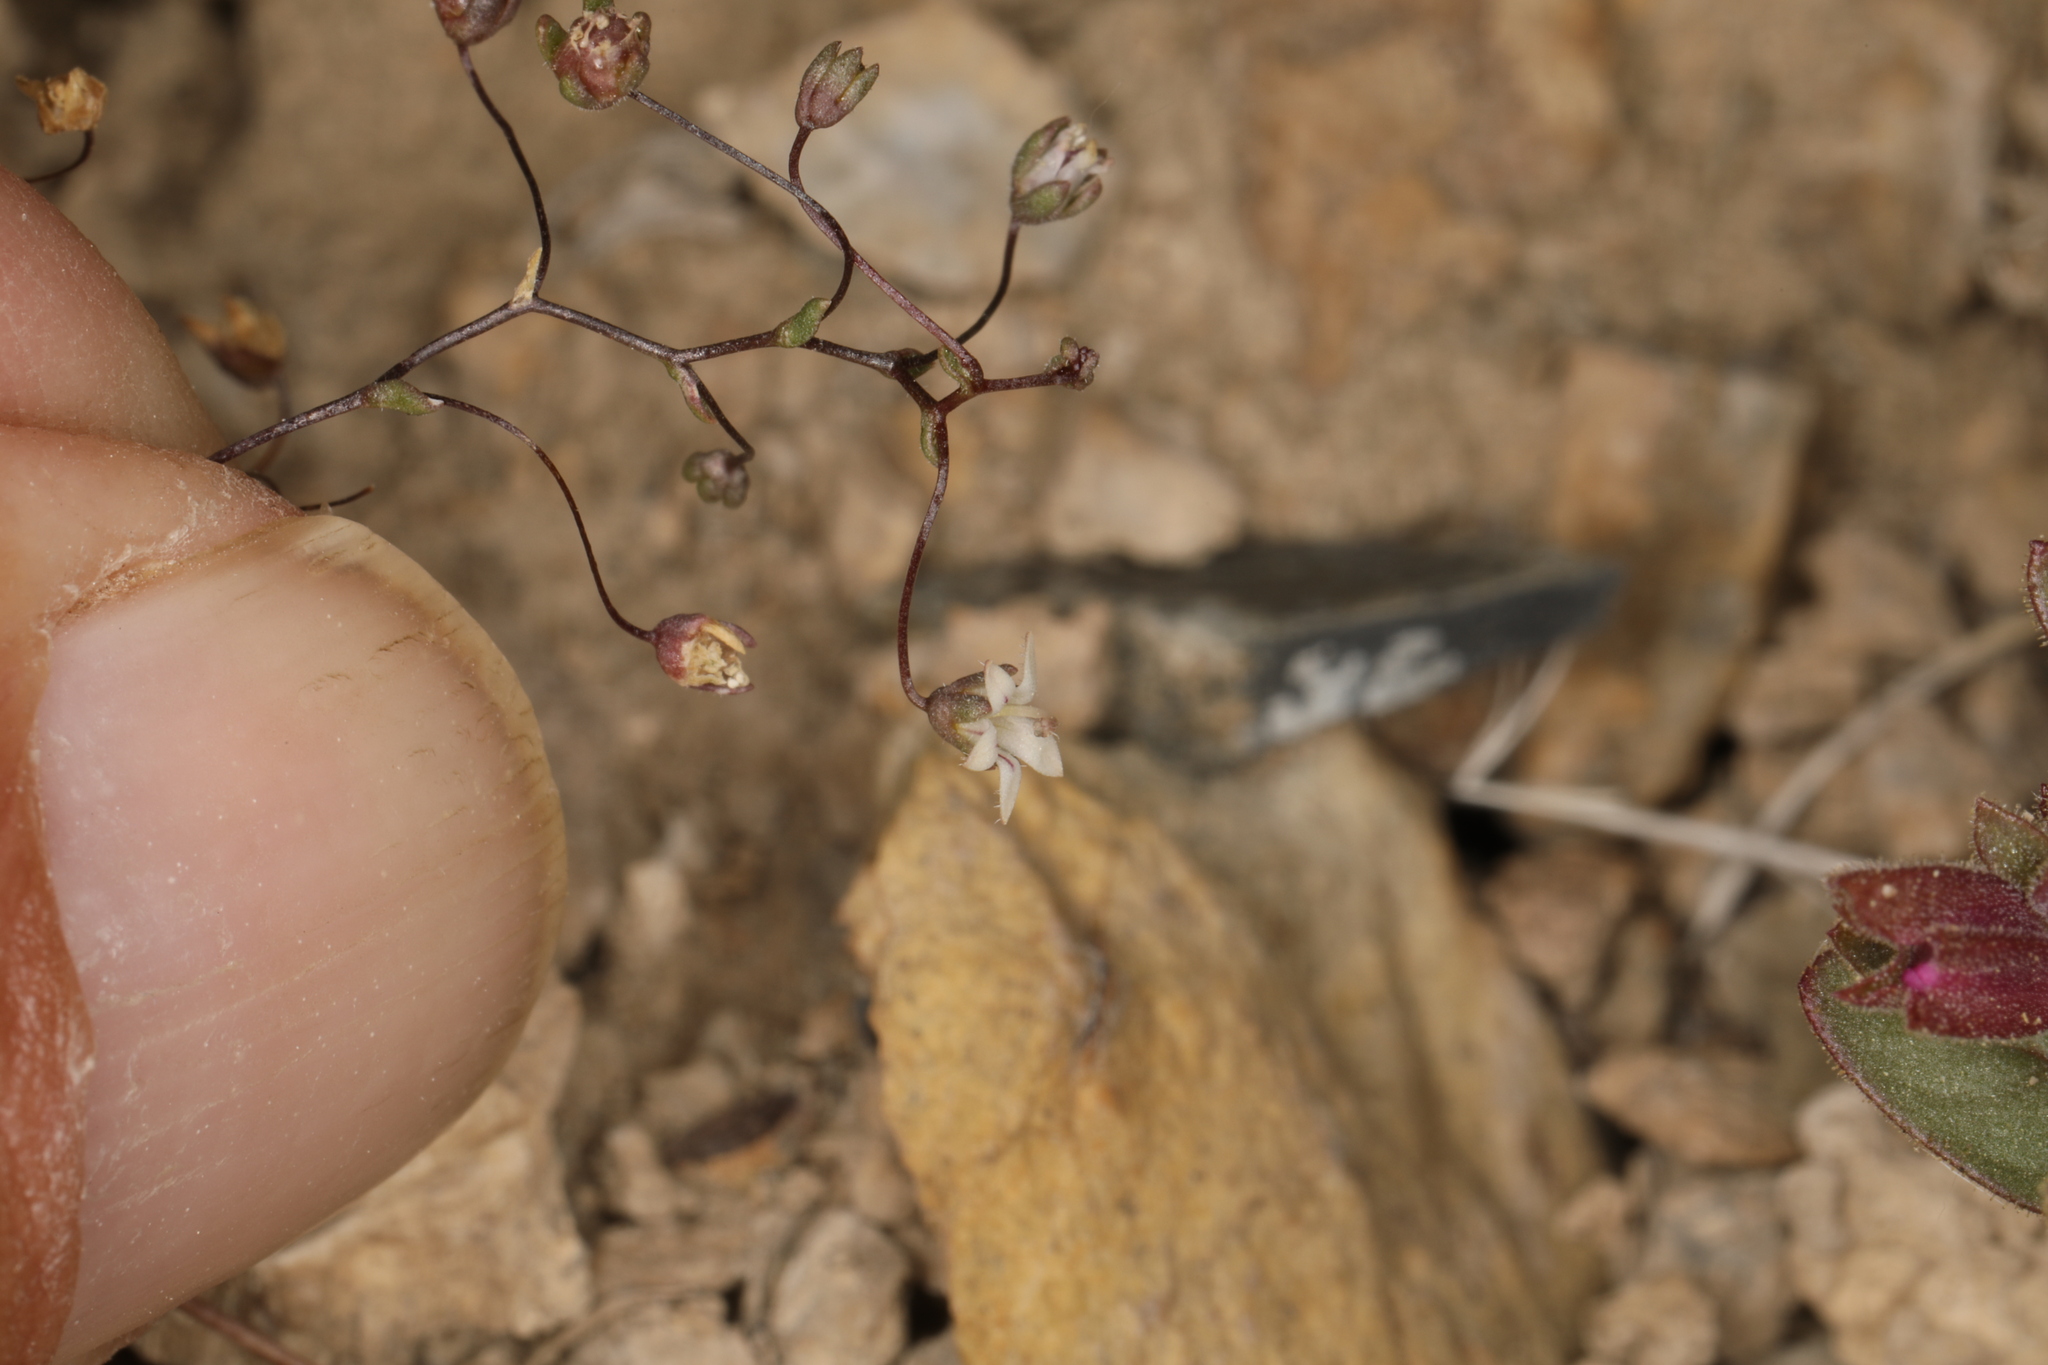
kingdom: Plantae
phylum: Tracheophyta
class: Magnoliopsida
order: Asterales
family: Campanulaceae
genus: Nemacladus
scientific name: Nemacladus inyoensis
